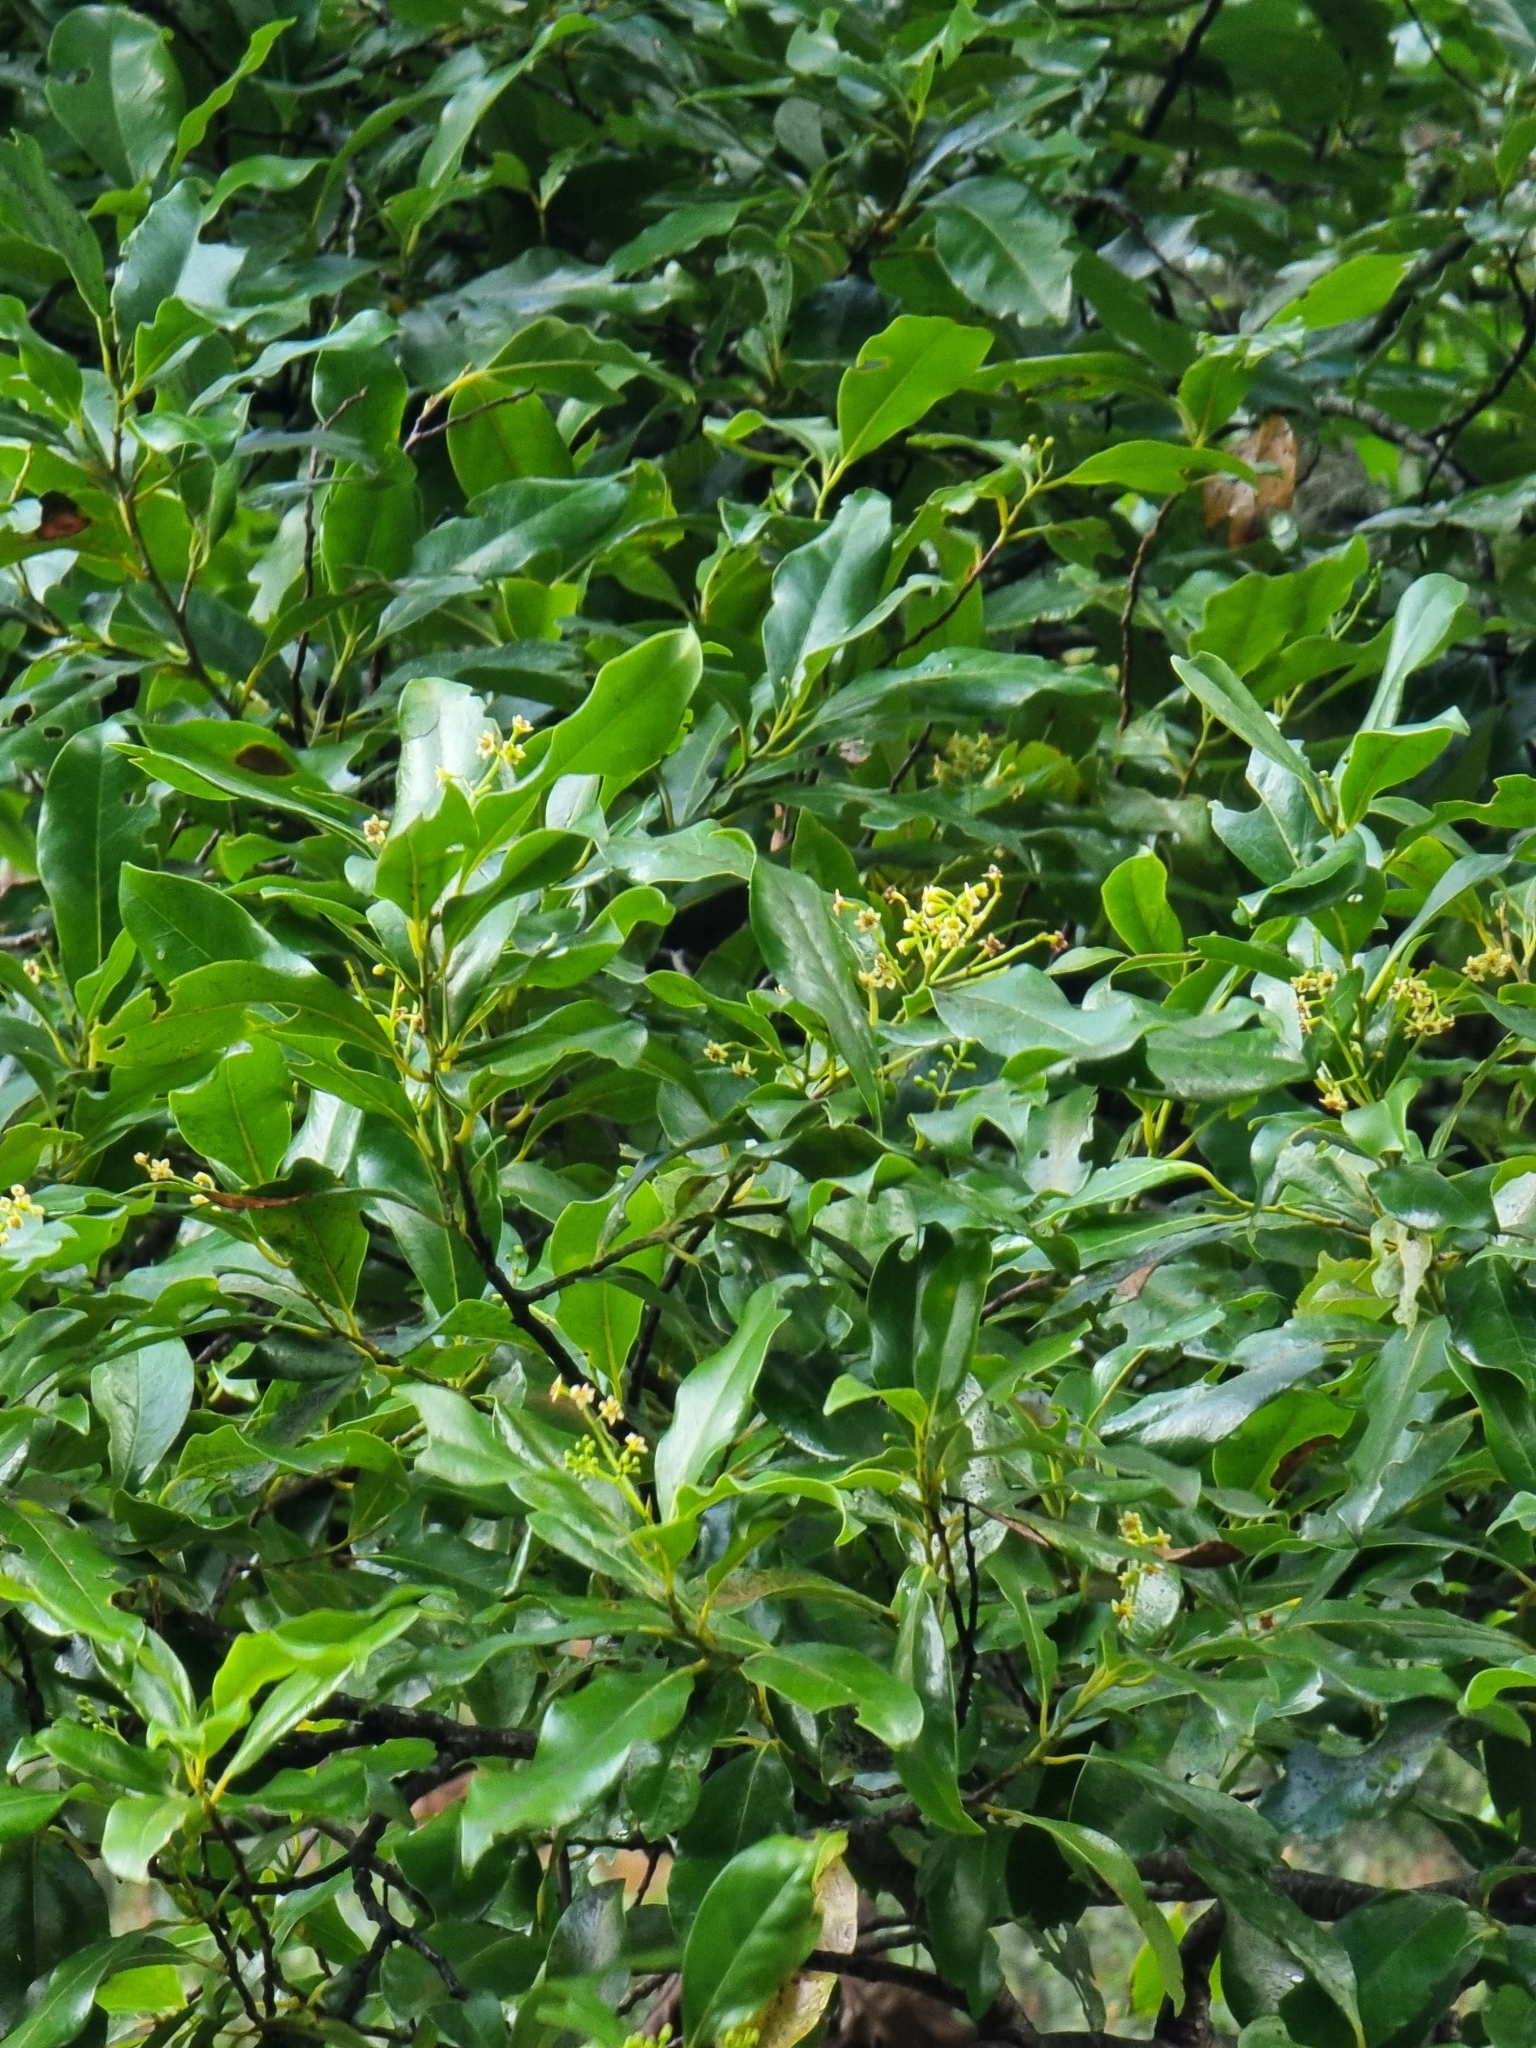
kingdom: Plantae
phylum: Tracheophyta
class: Magnoliopsida
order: Laurales
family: Lauraceae
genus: Mespilodaphne
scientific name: Mespilodaphne foetens
